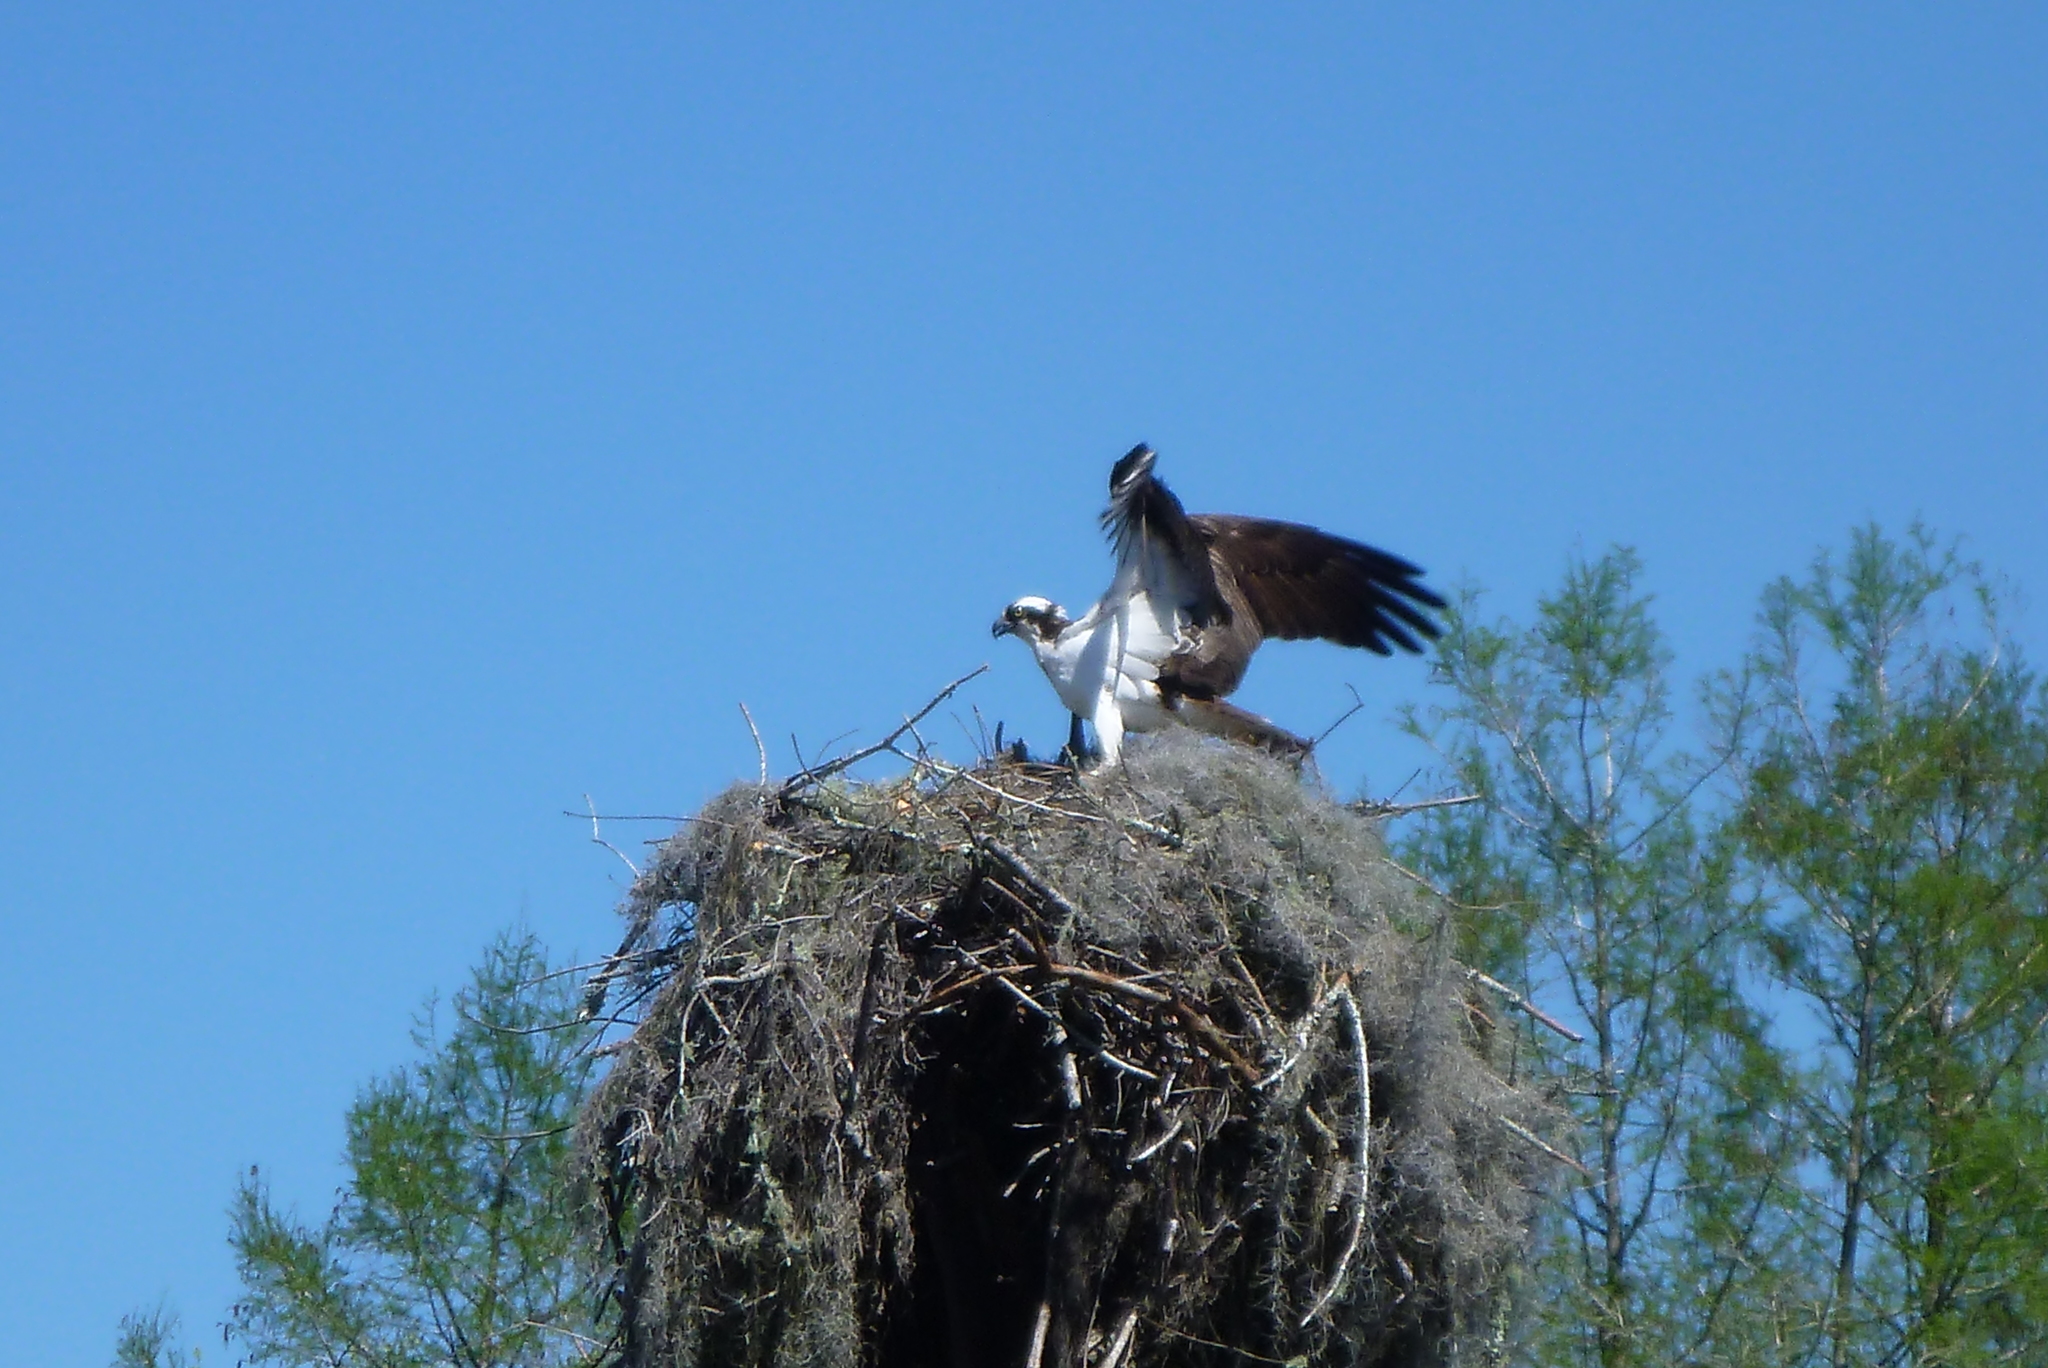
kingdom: Animalia
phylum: Chordata
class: Aves
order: Accipitriformes
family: Pandionidae
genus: Pandion
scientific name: Pandion haliaetus
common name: Osprey
